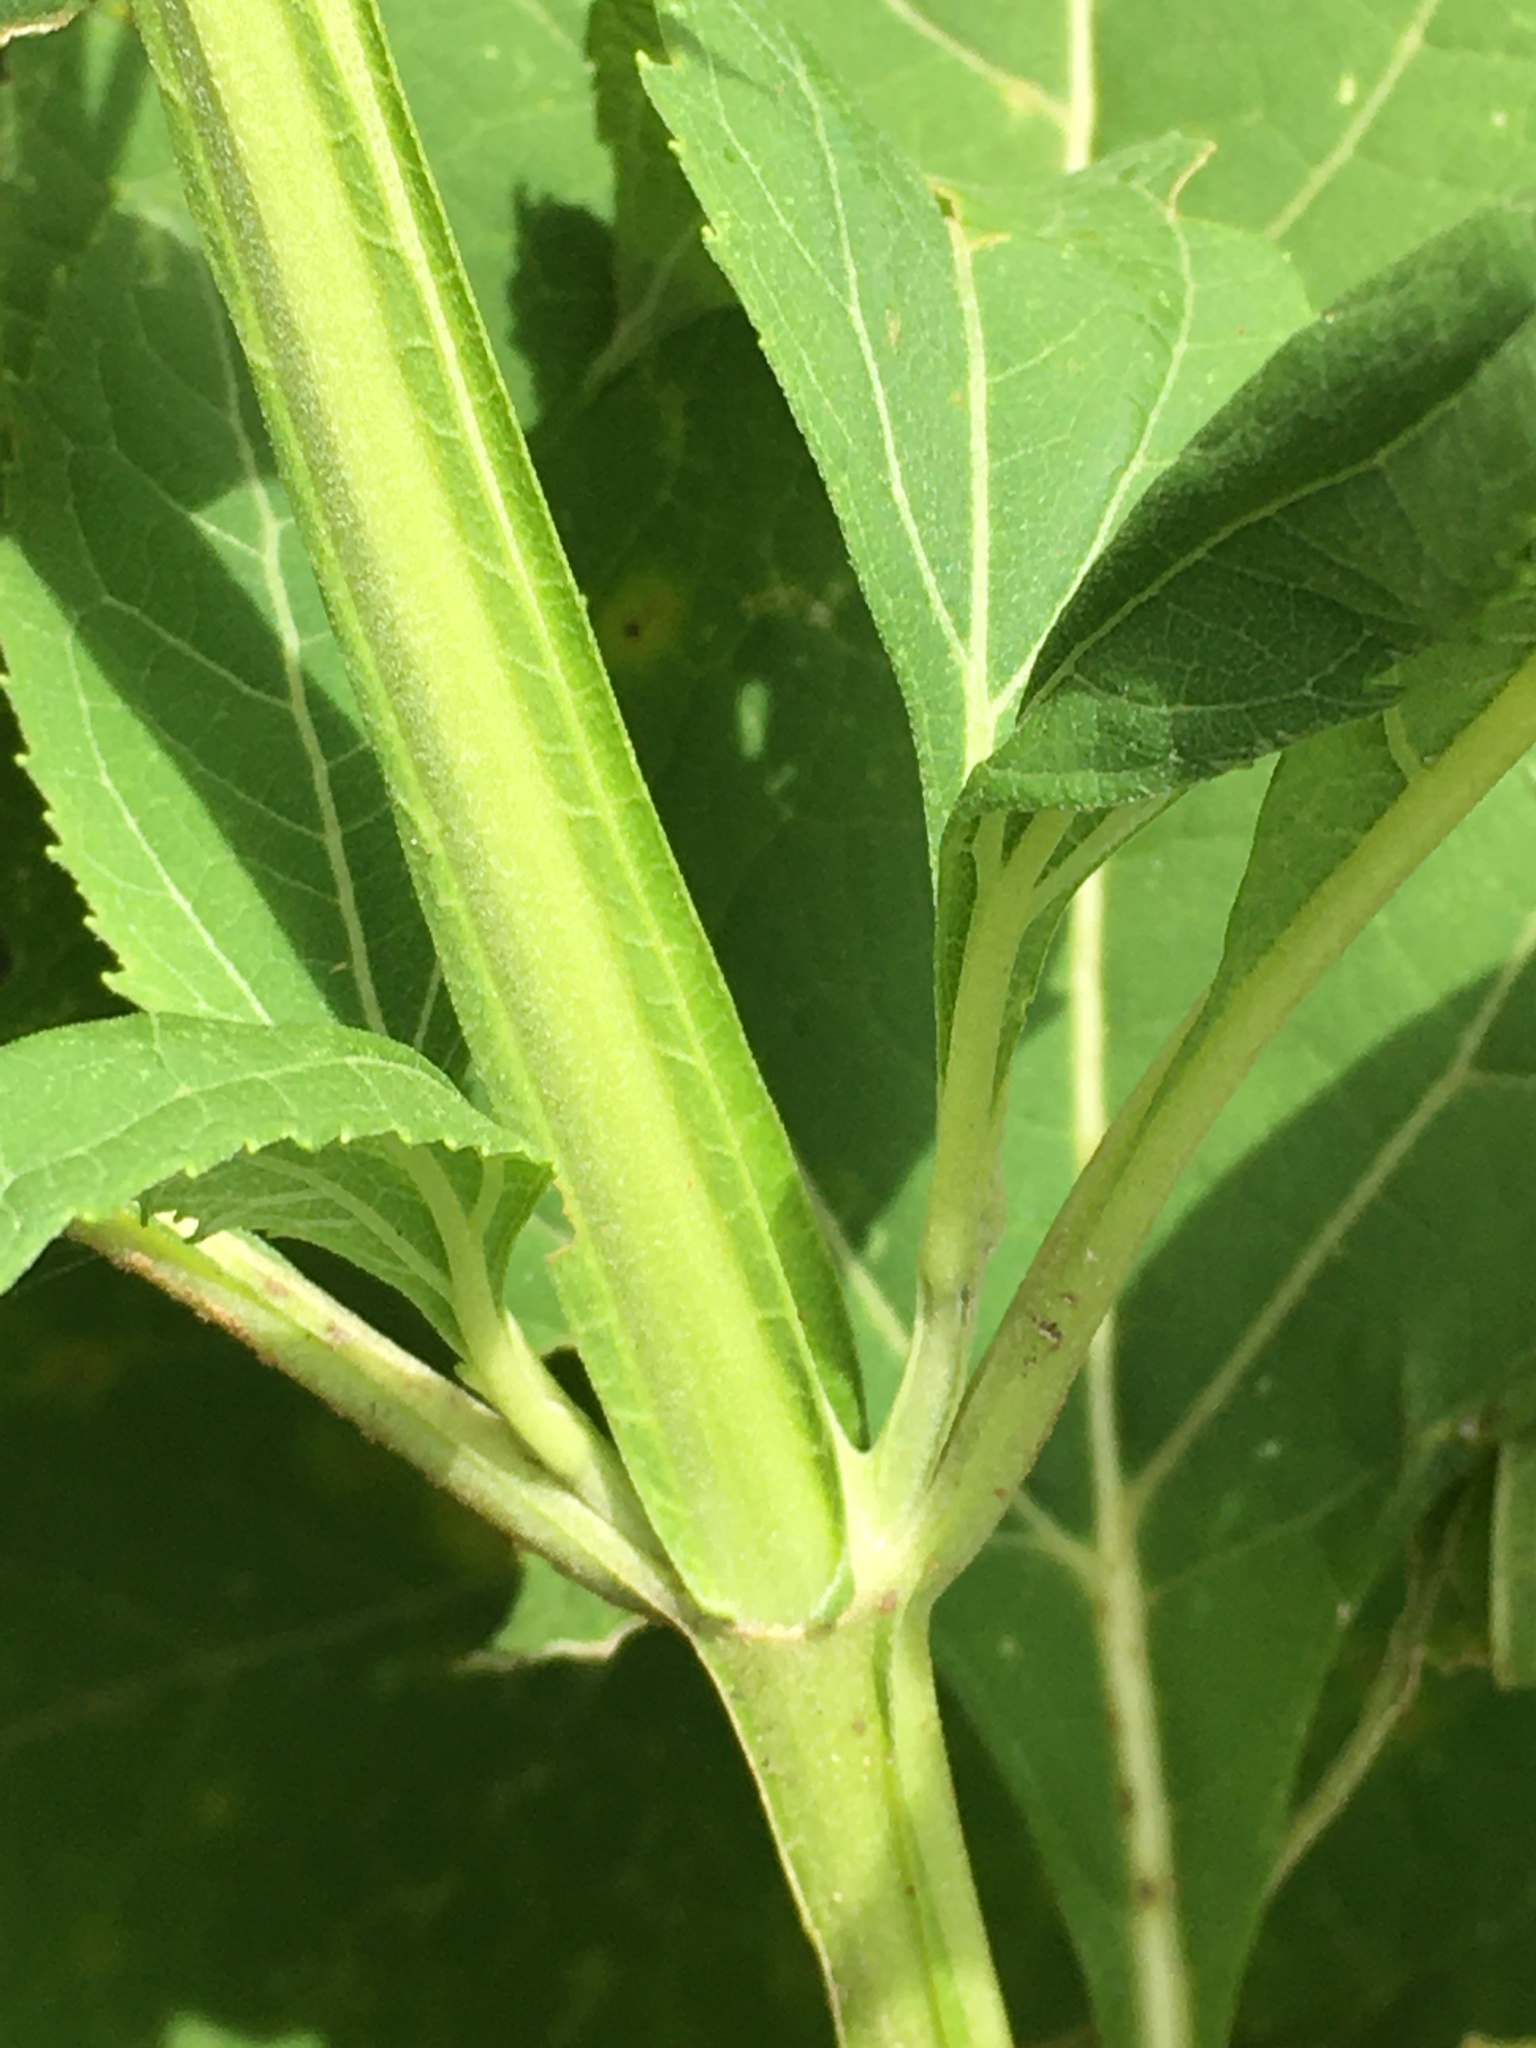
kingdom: Plantae
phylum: Tracheophyta
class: Magnoliopsida
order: Asterales
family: Asteraceae
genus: Verbesina
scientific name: Verbesina occidentalis
